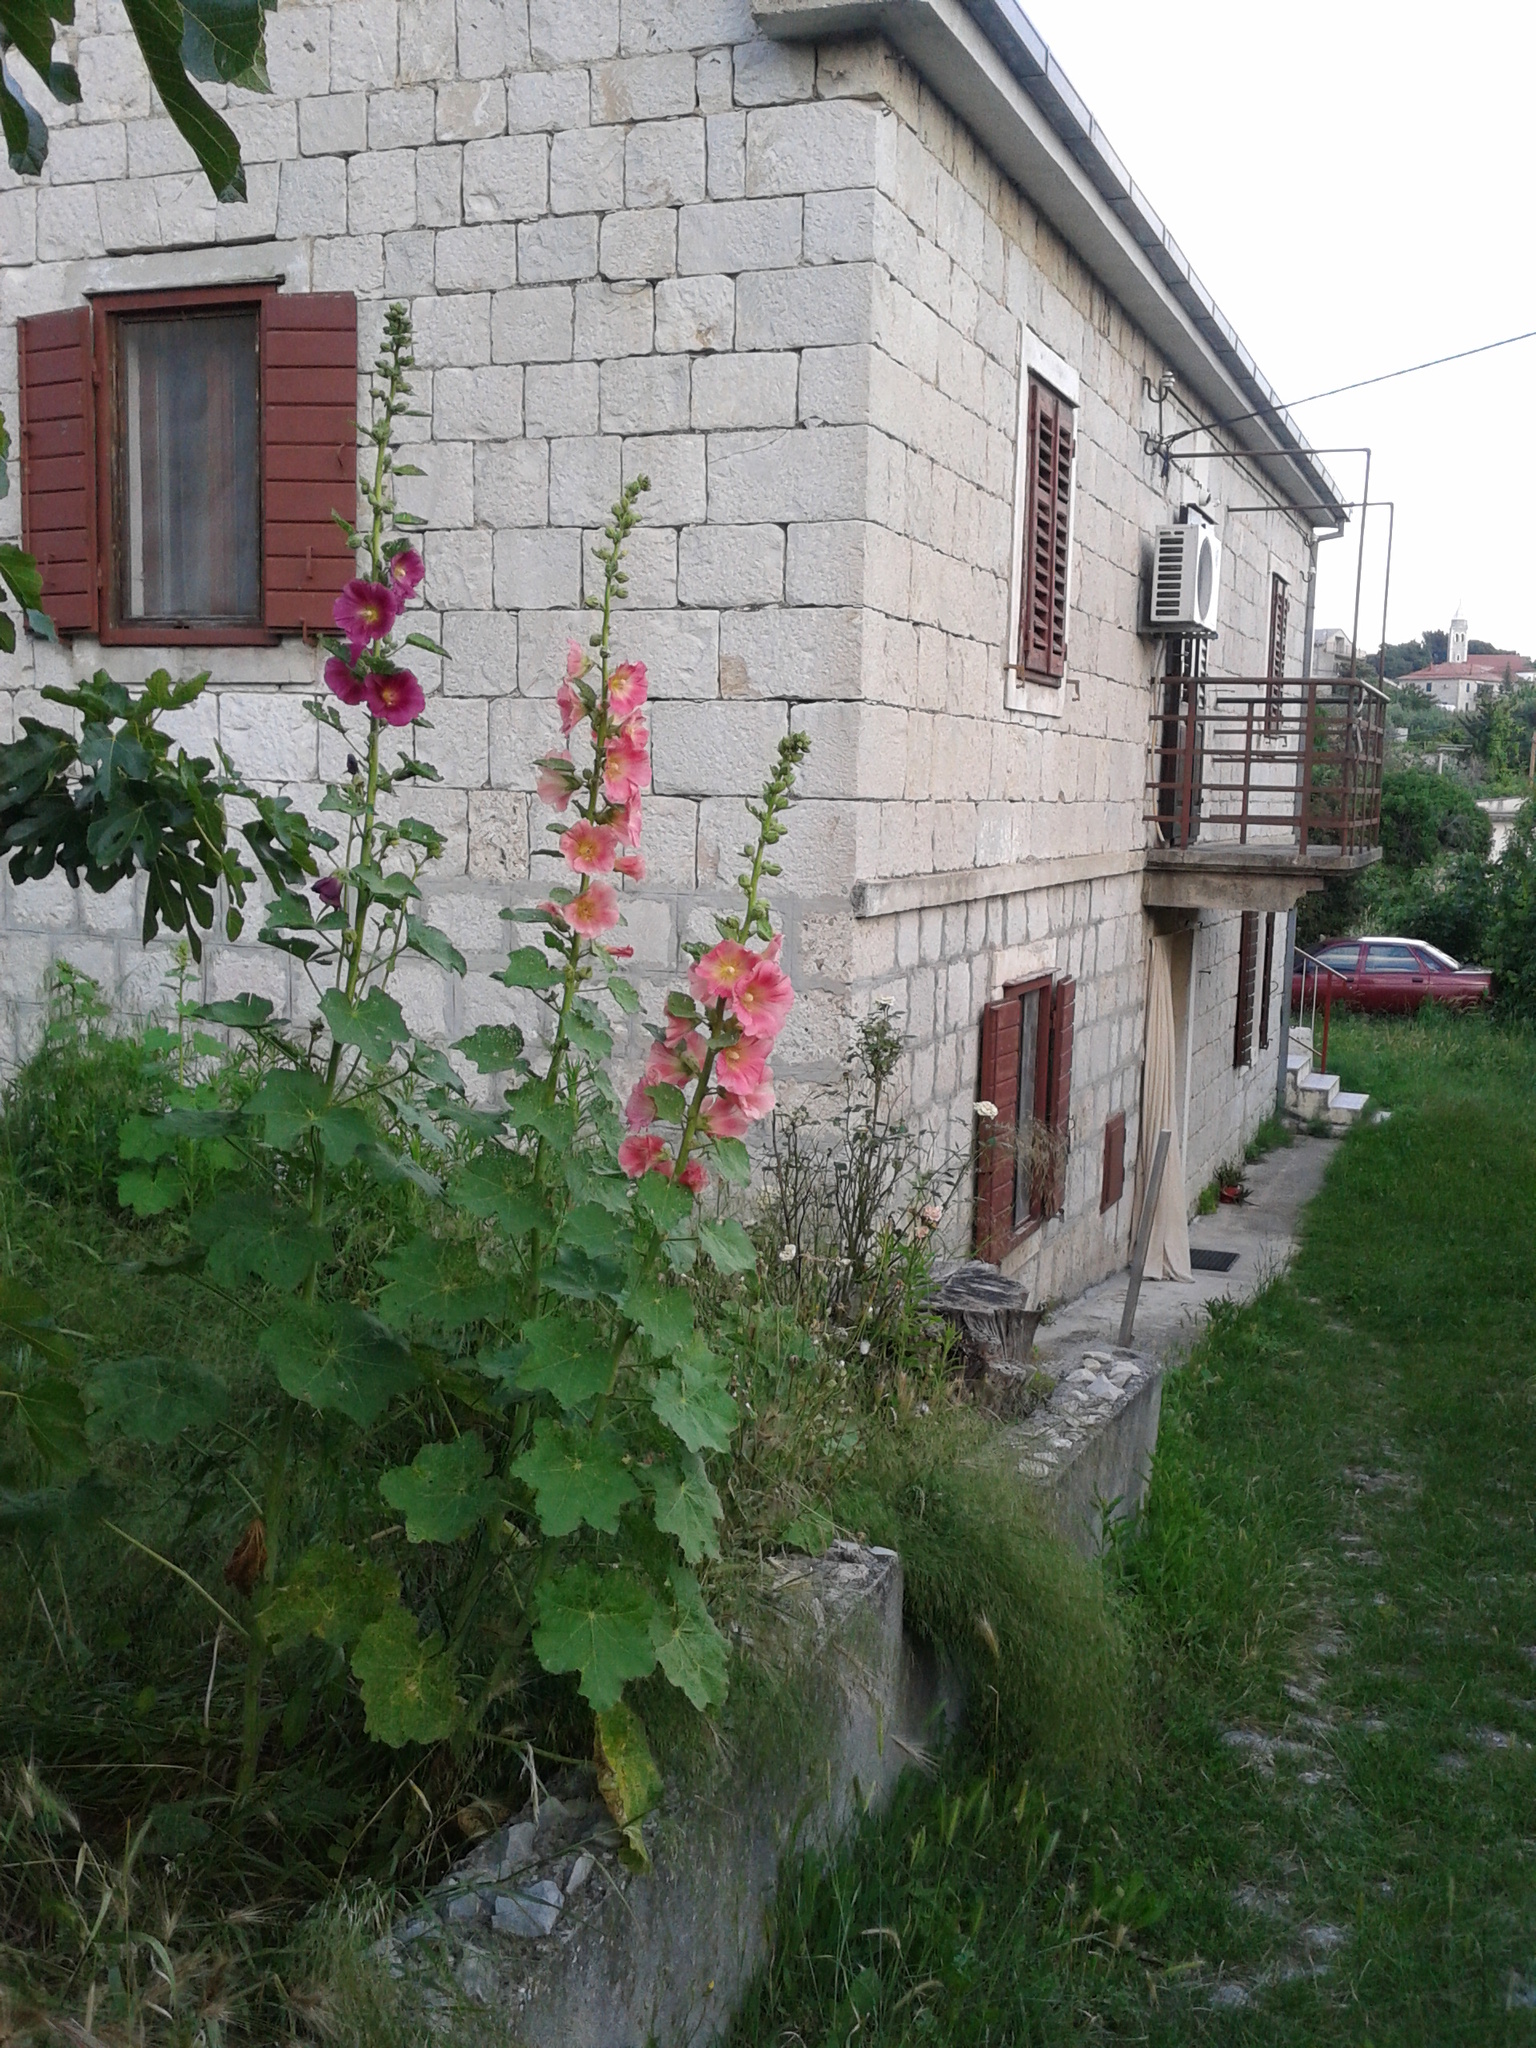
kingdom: Plantae
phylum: Tracheophyta
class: Magnoliopsida
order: Malvales
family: Malvaceae
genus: Alcea
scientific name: Alcea rosea
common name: Hollyhock
